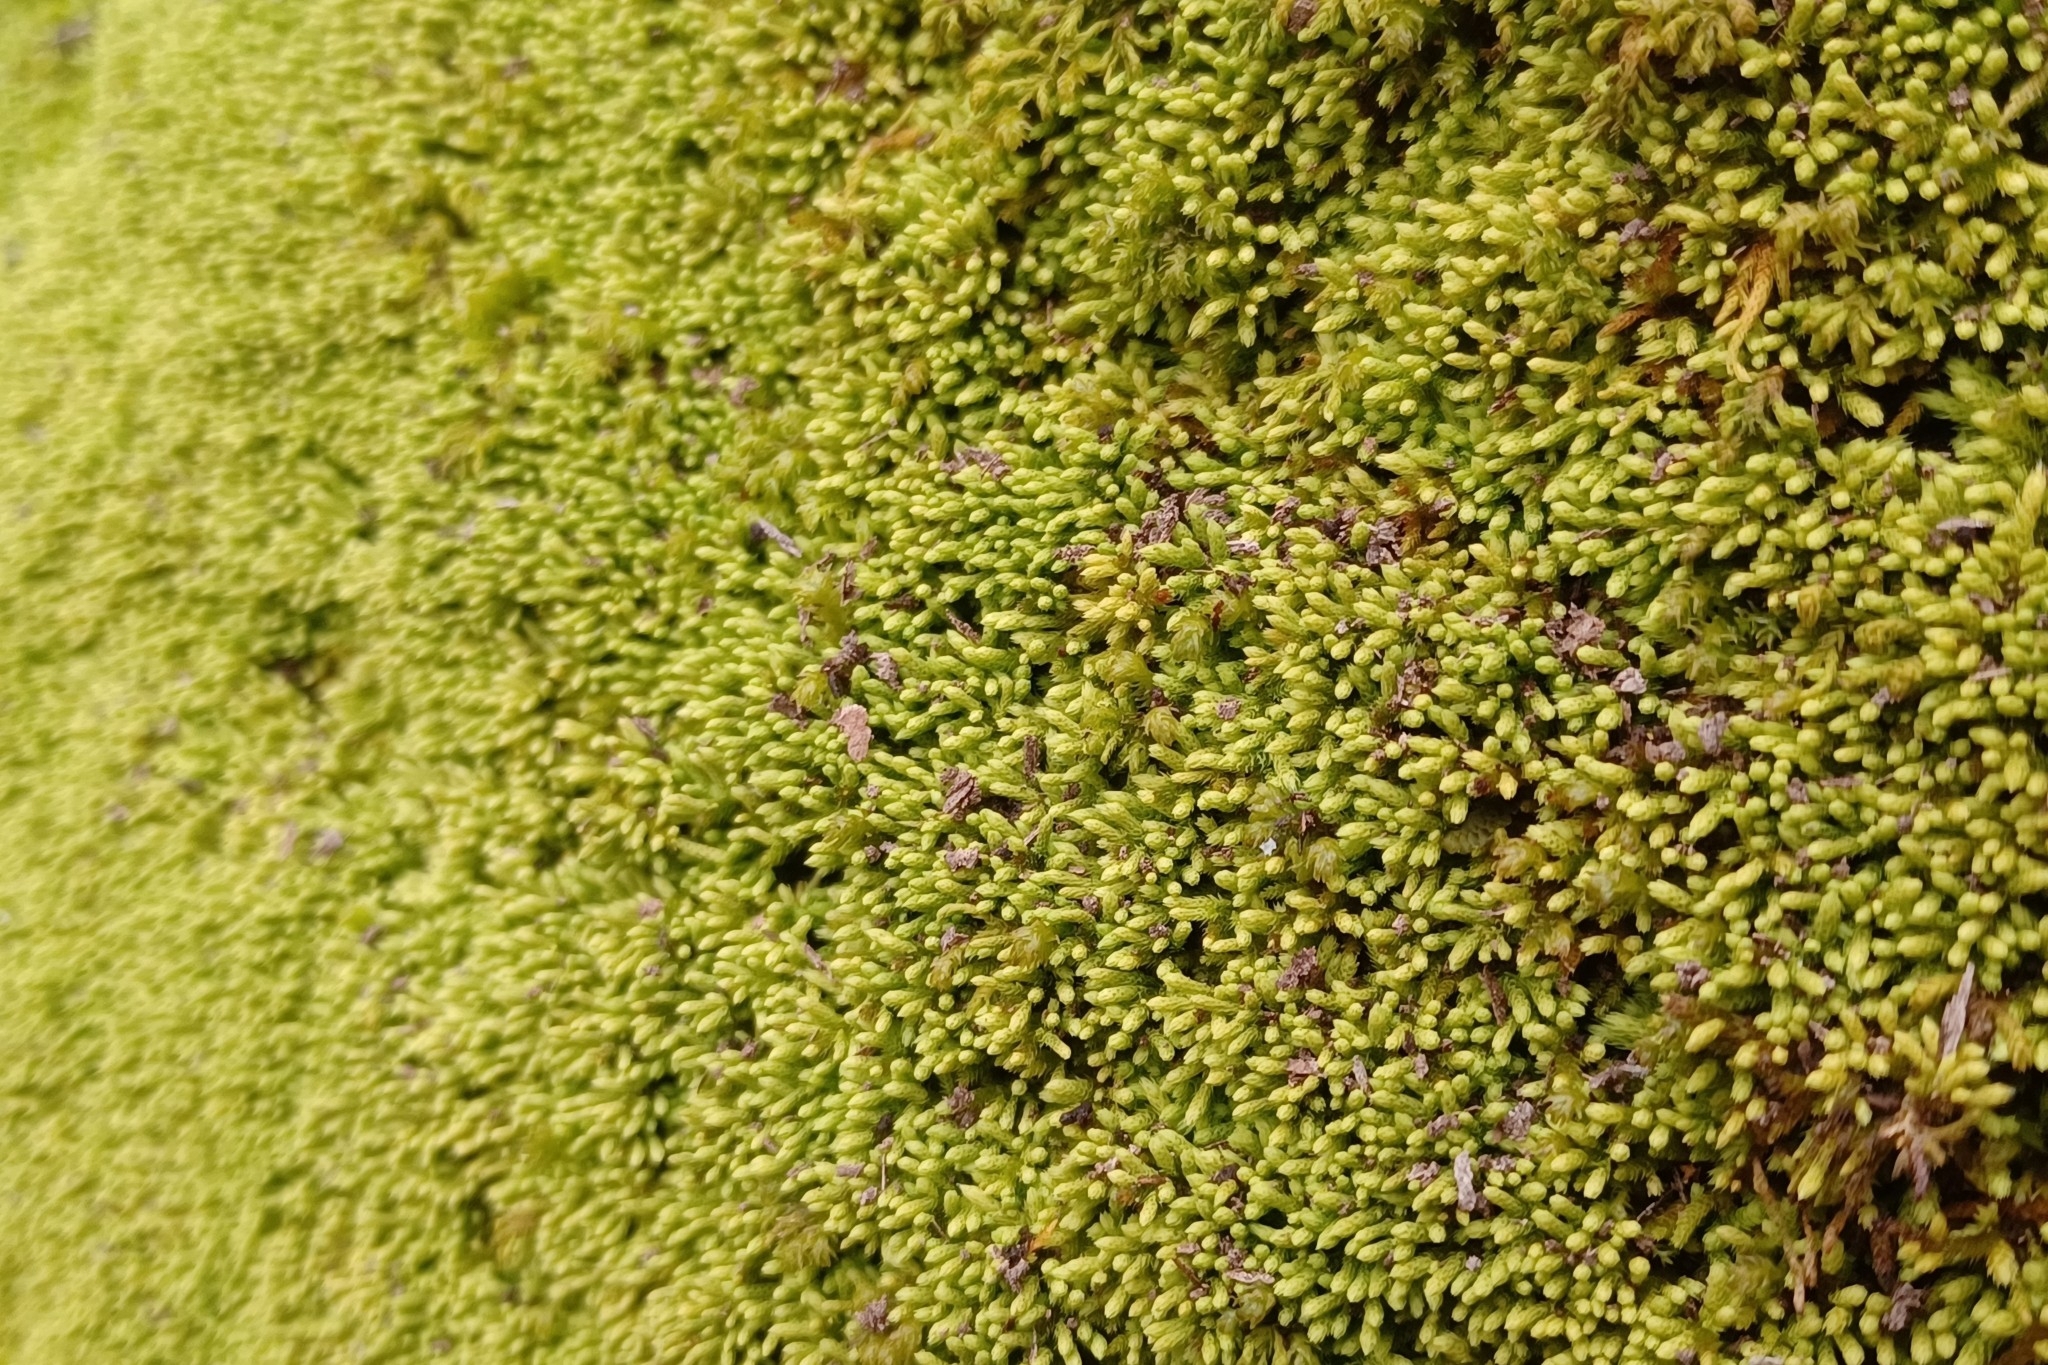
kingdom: Plantae
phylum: Bryophyta
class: Bryopsida
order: Hypnales
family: Brachytheciaceae
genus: Claopodium
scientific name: Claopodium rostratum
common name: Yellow yarn moss
